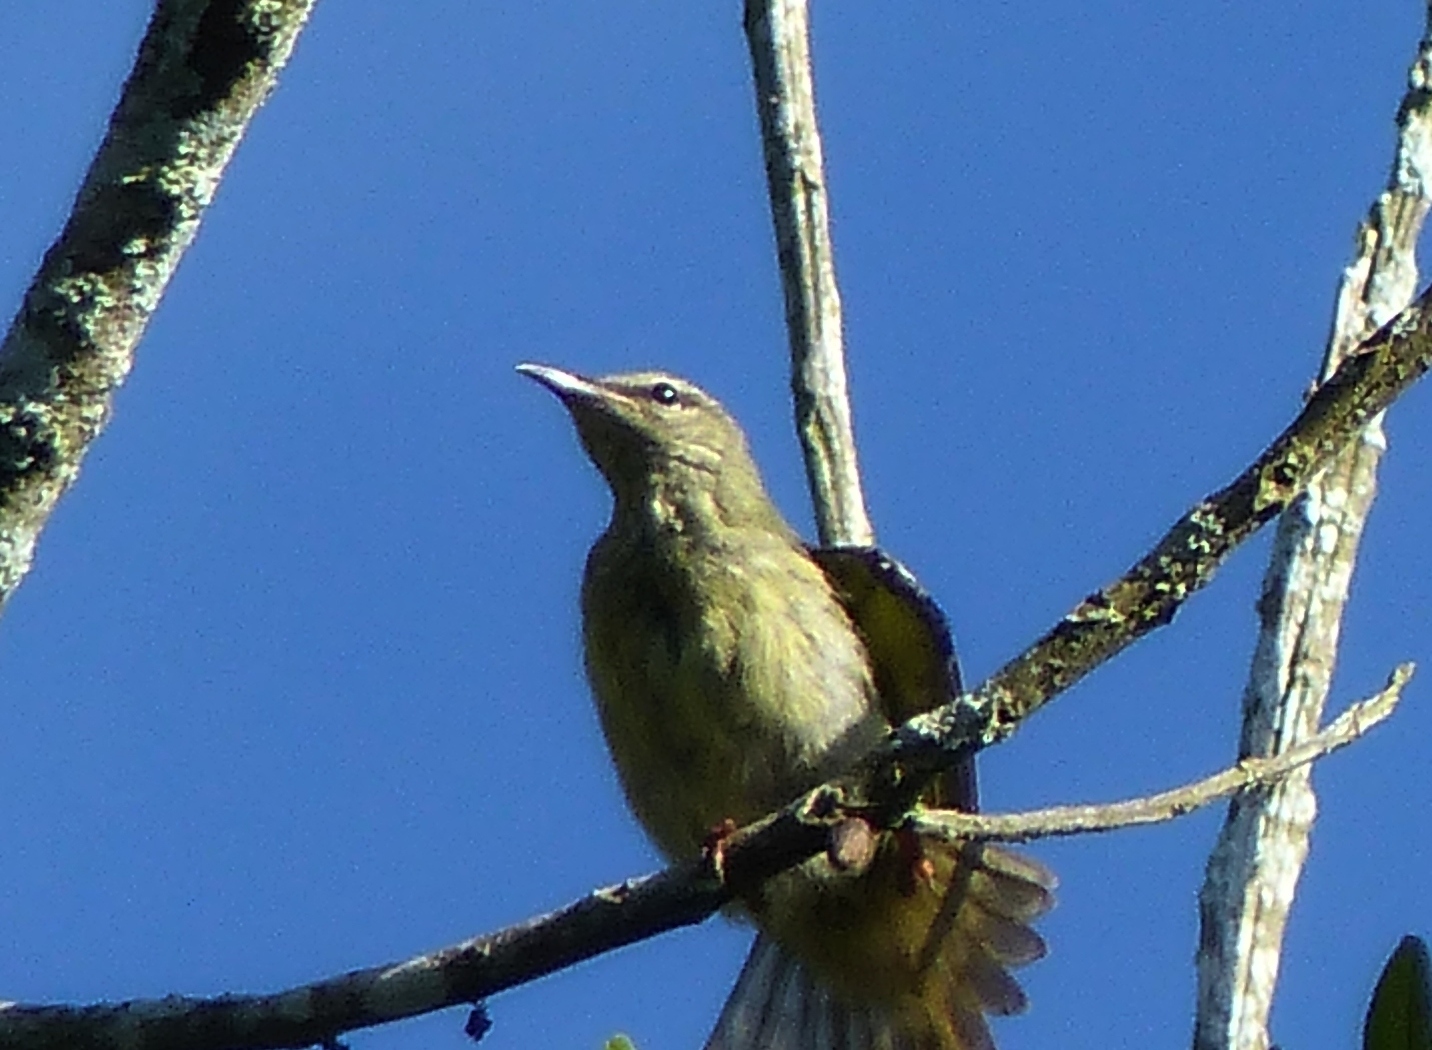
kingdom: Animalia
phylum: Chordata
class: Aves
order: Passeriformes
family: Thraupidae
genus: Cyanerpes
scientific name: Cyanerpes cyaneus
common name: Red-legged honeycreeper
